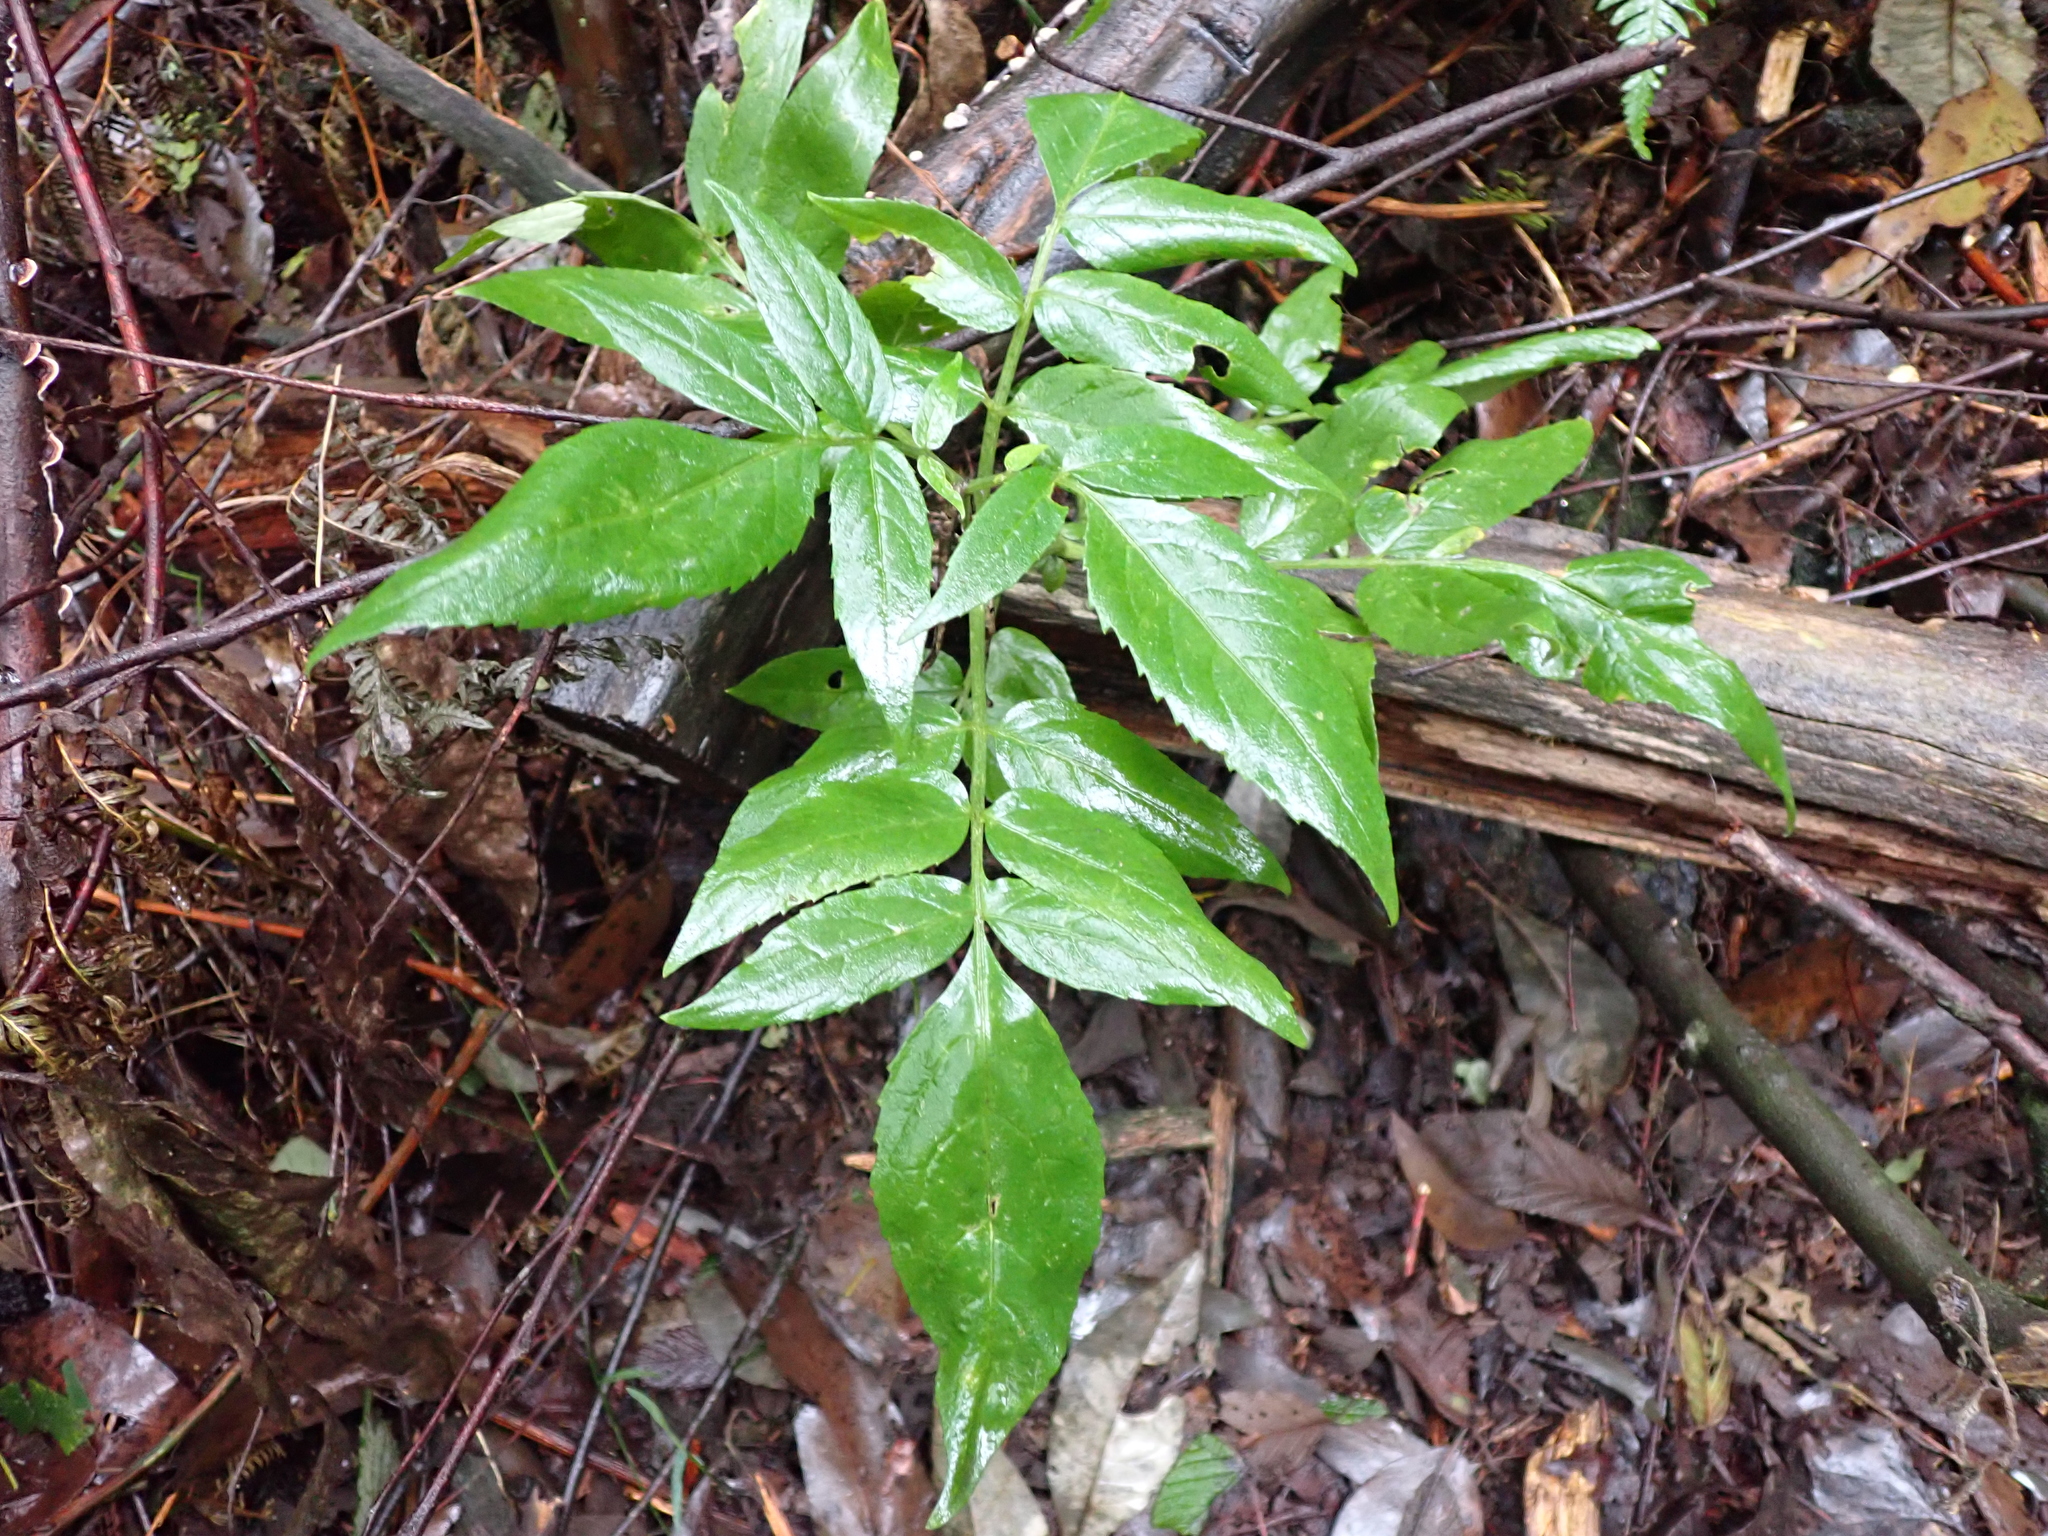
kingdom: Plantae
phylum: Tracheophyta
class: Magnoliopsida
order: Dipsacales
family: Viburnaceae
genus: Sambucus
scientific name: Sambucus gaudichaudiana
